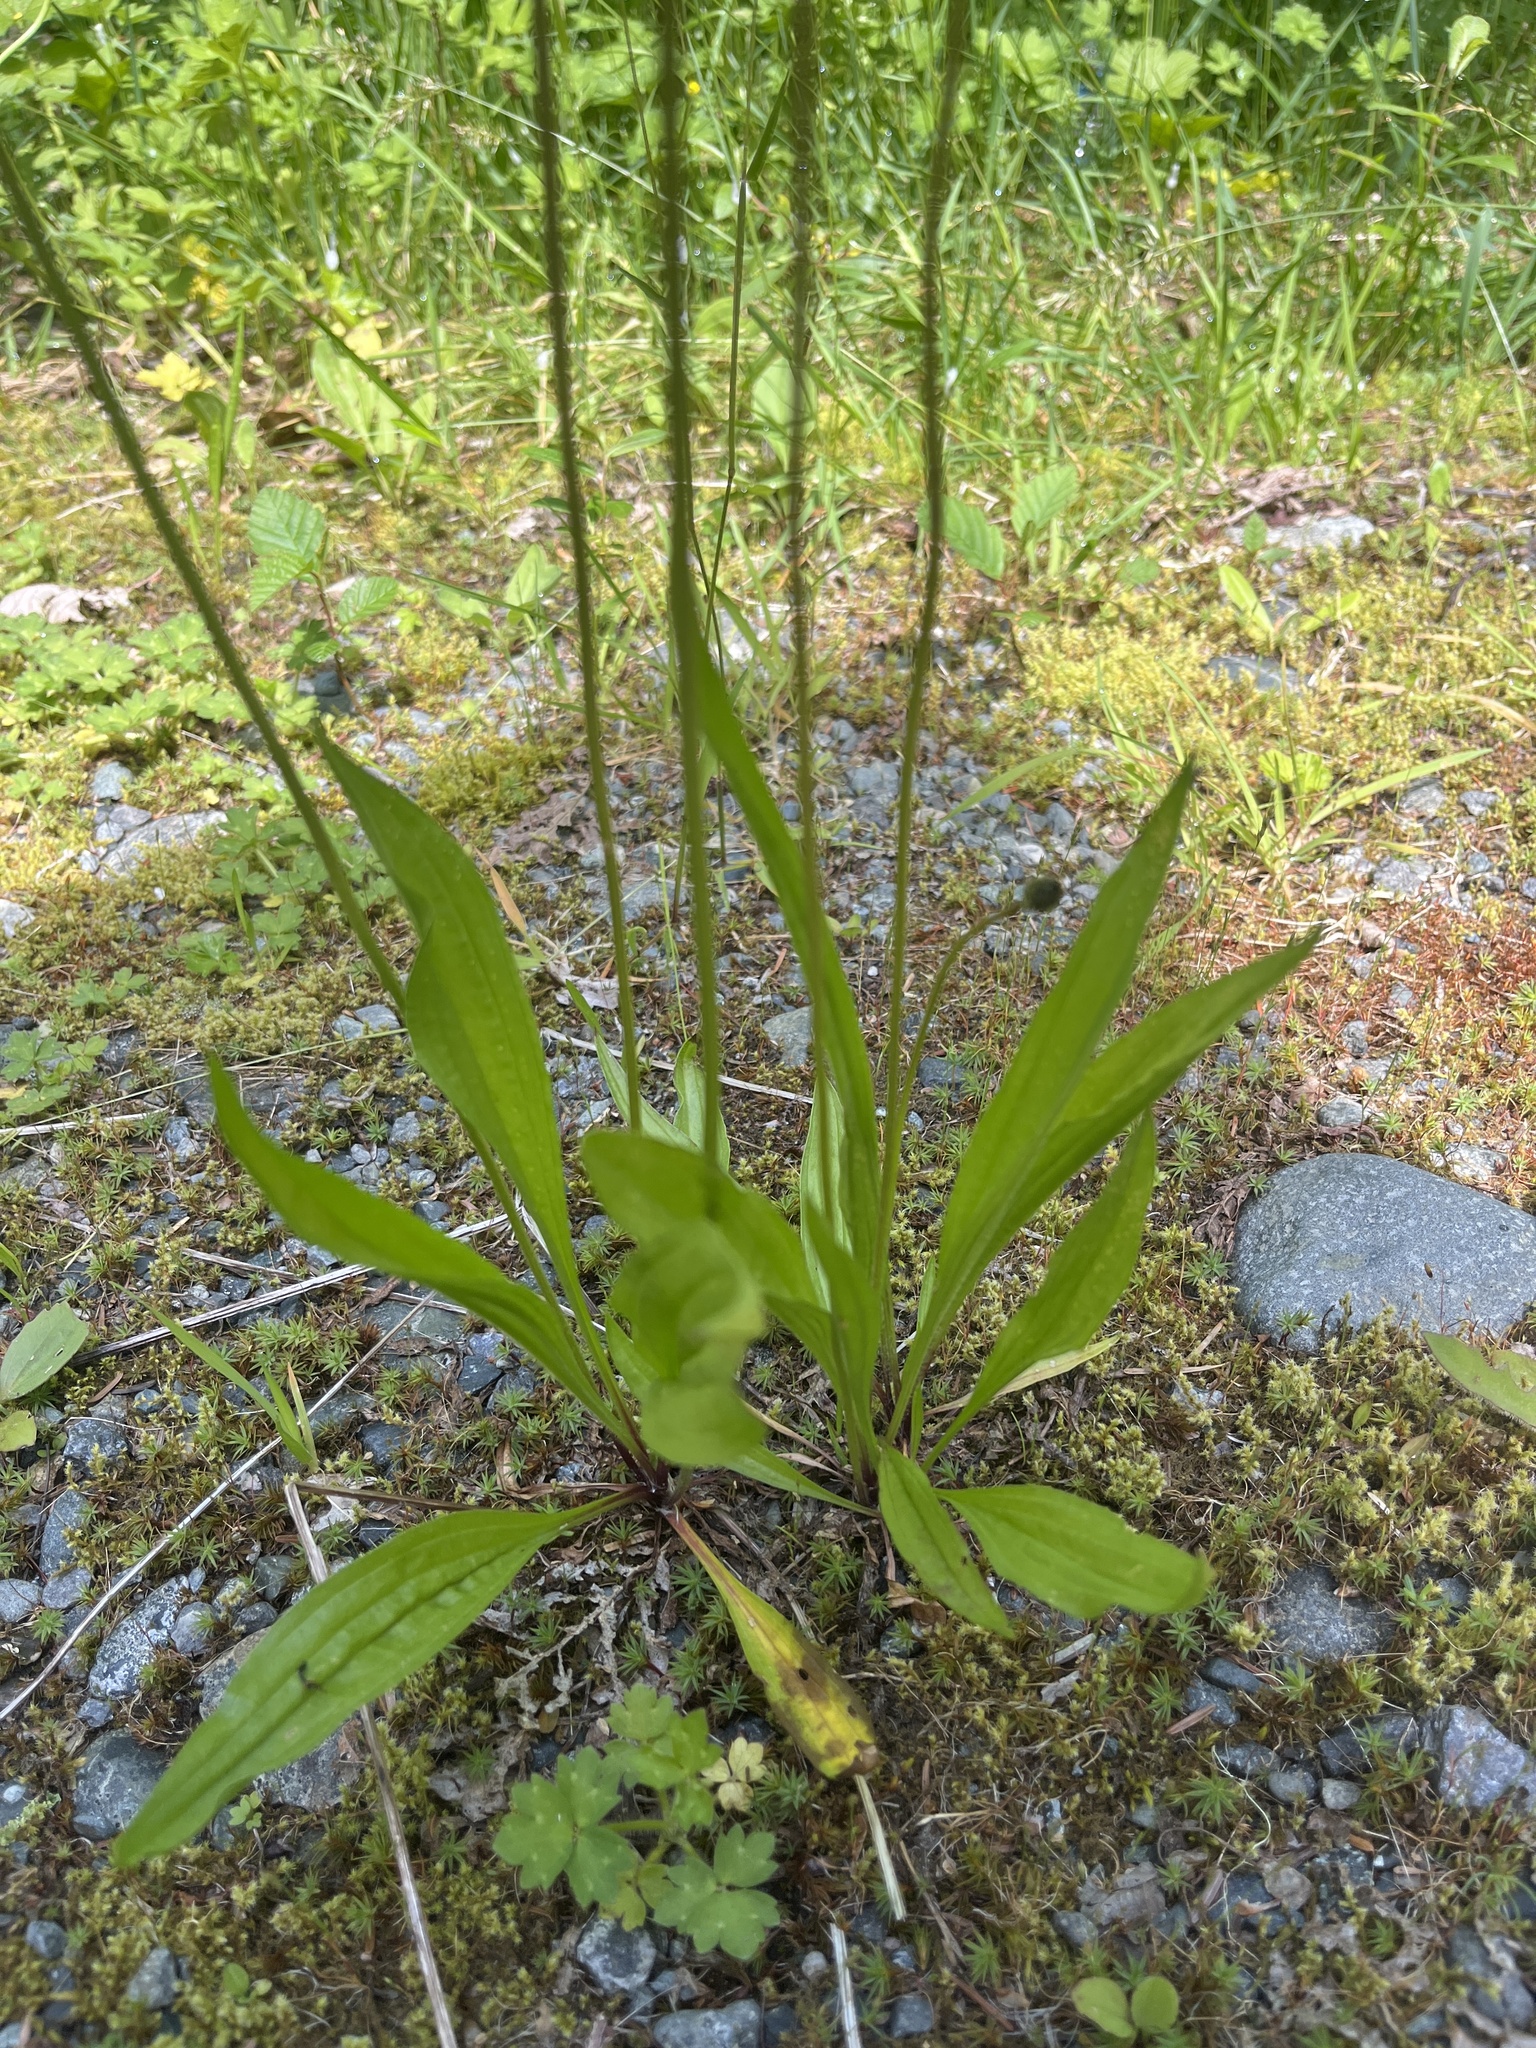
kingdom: Plantae
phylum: Tracheophyta
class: Magnoliopsida
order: Lamiales
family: Plantaginaceae
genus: Plantago
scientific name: Plantago lanceolata
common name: Ribwort plantain
